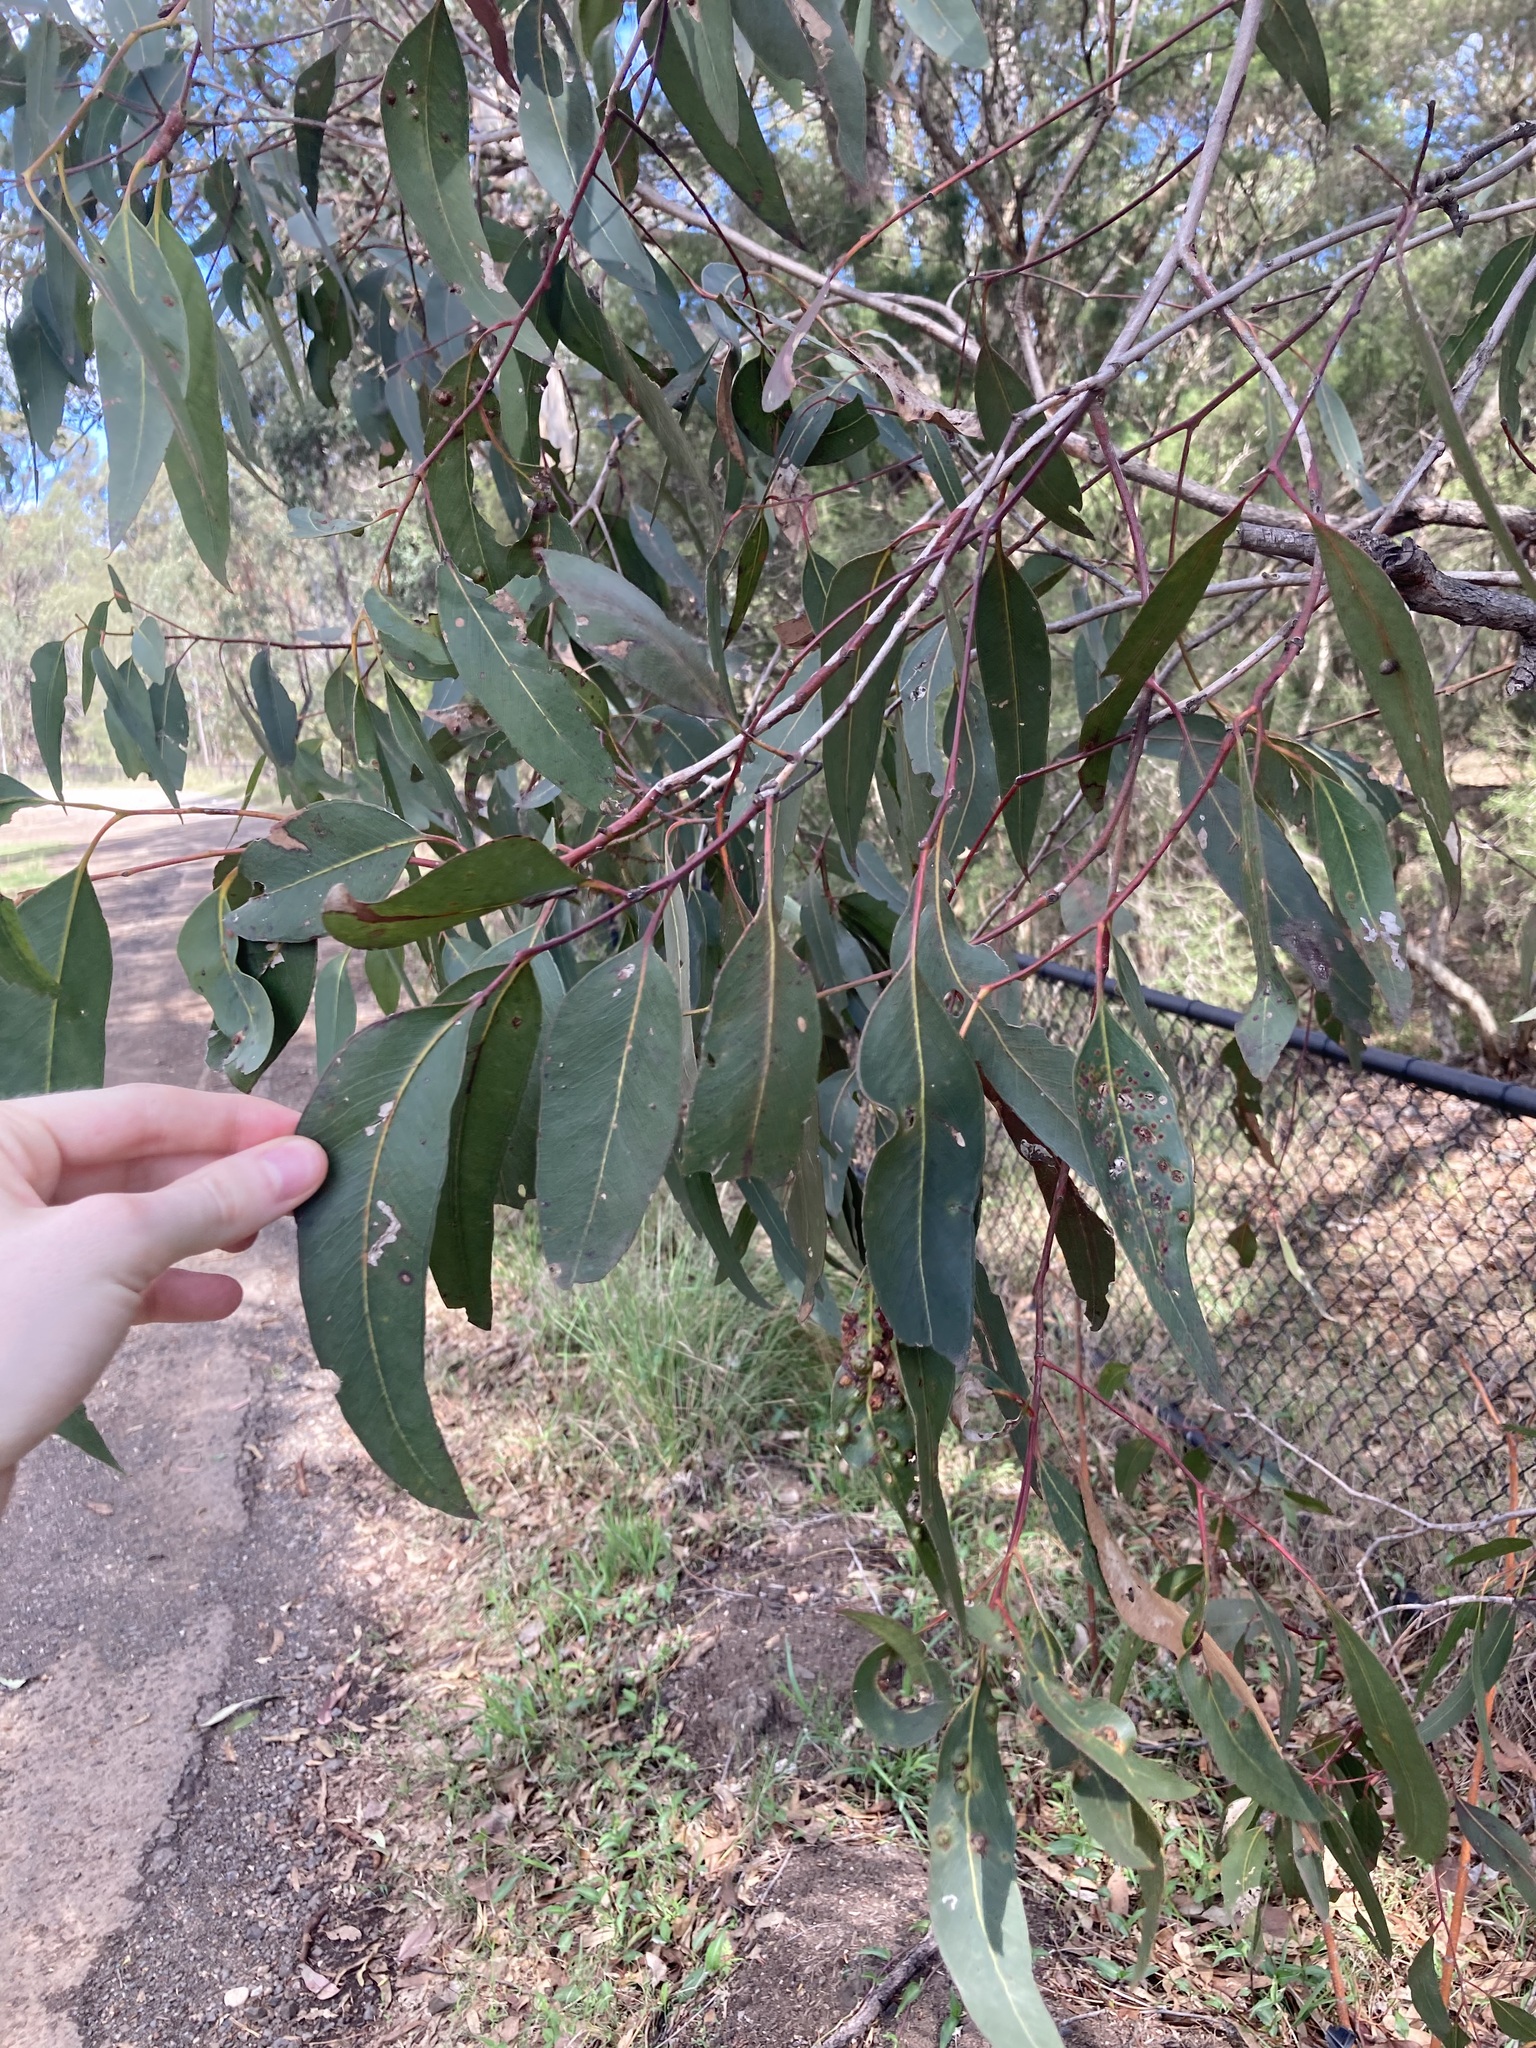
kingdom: Plantae
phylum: Tracheophyta
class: Magnoliopsida
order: Myrtales
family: Myrtaceae
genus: Eucalyptus
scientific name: Eucalyptus fibrosa
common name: Red ironbark
